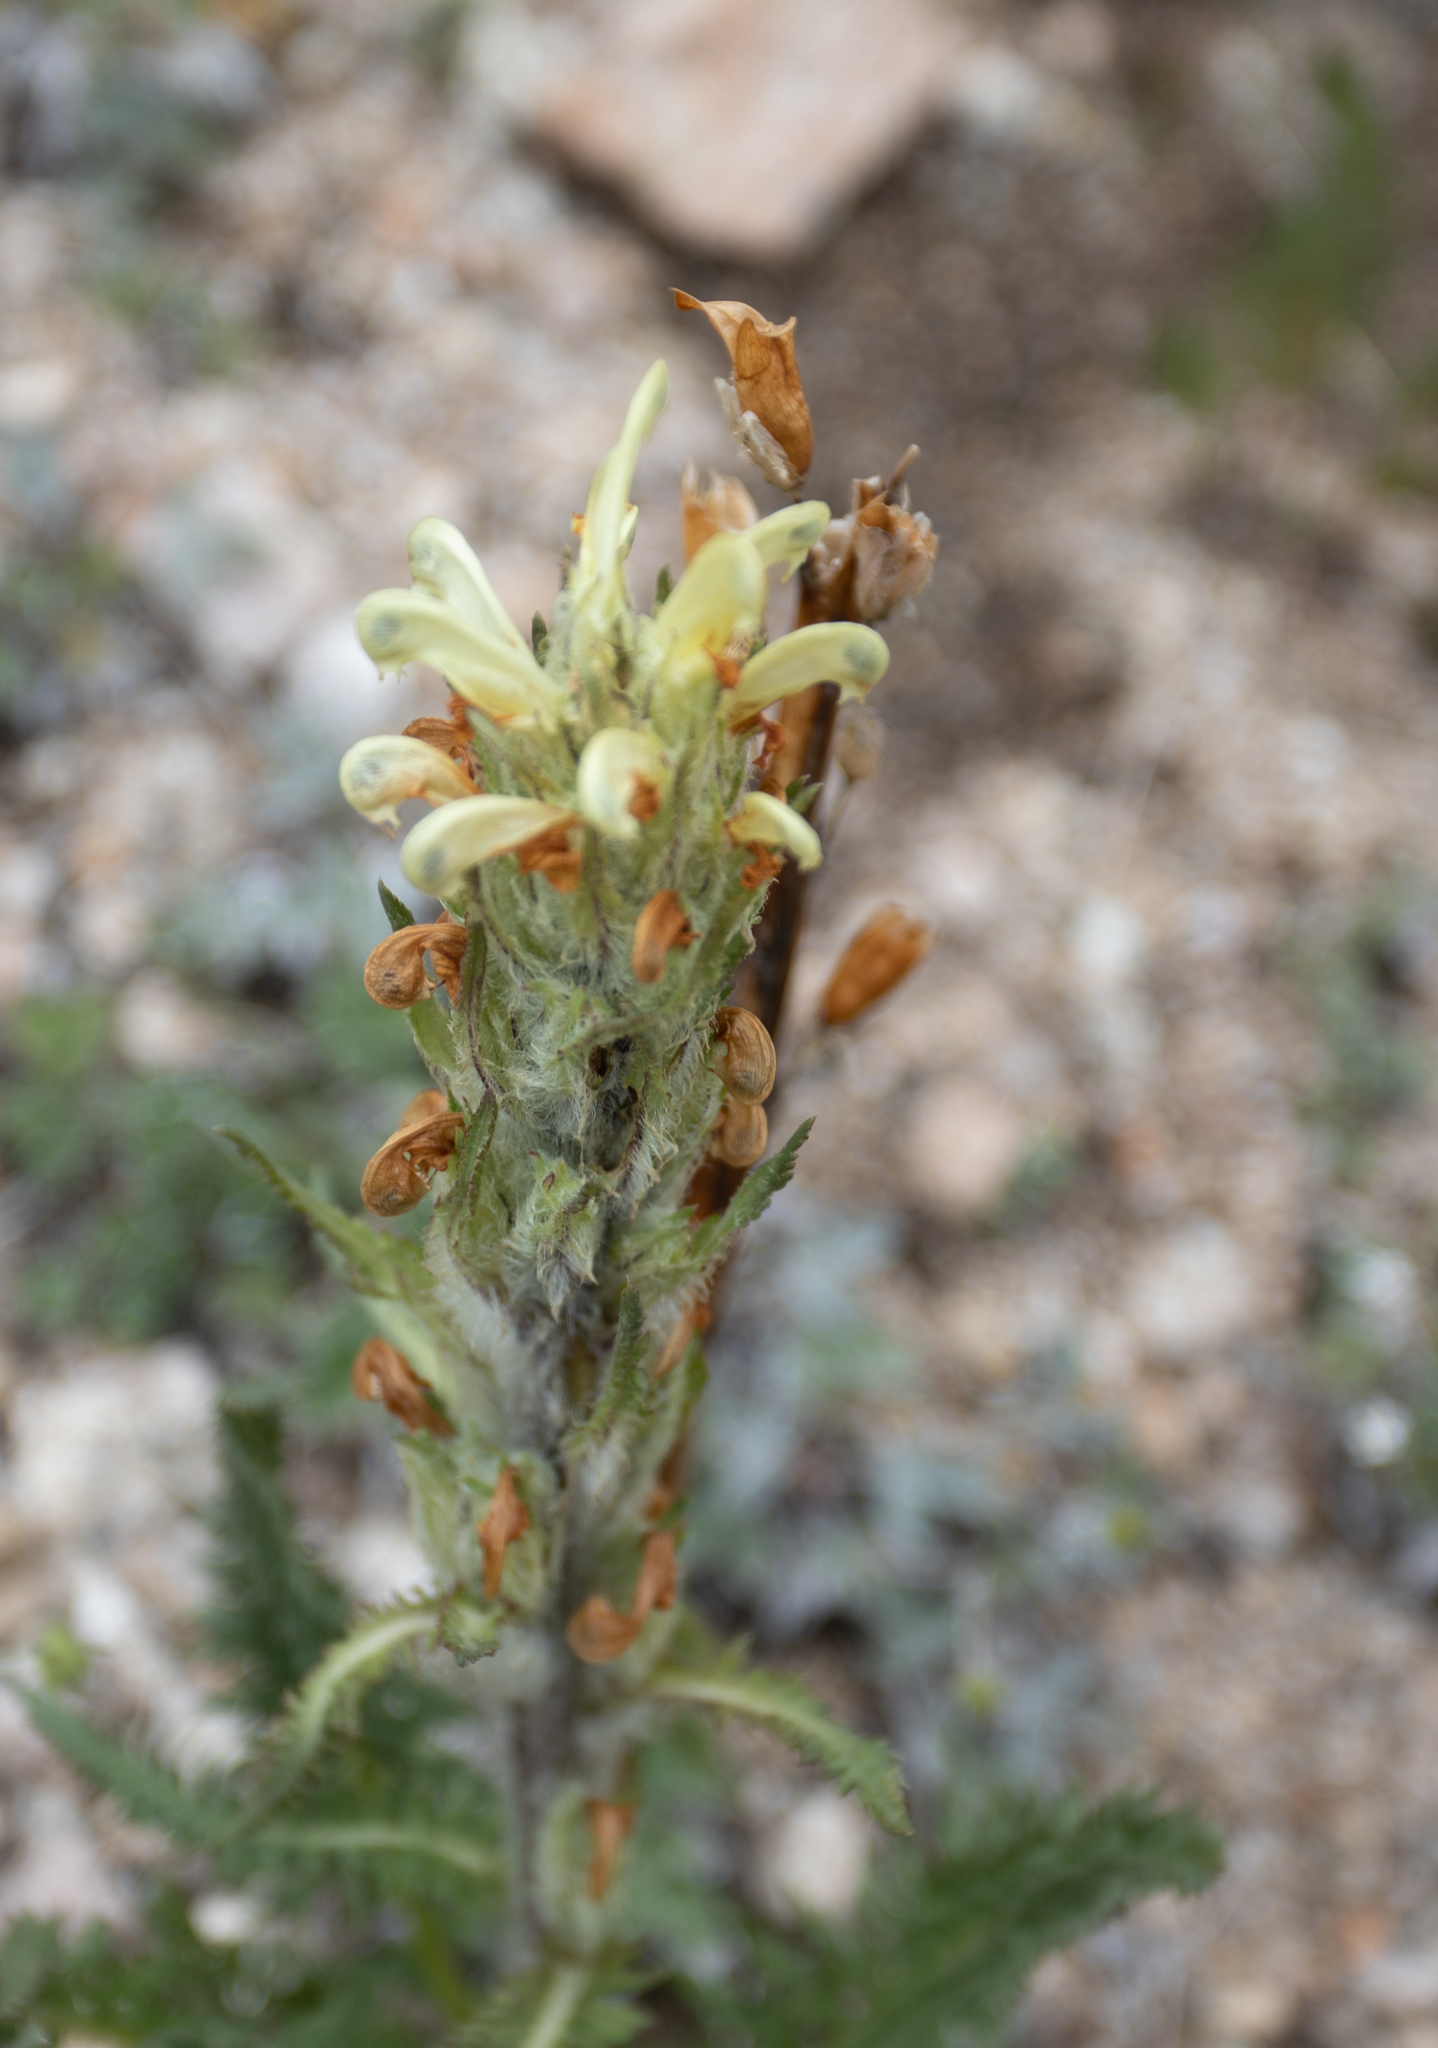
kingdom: Plantae
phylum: Tracheophyta
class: Magnoliopsida
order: Lamiales
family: Orobanchaceae
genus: Pedicularis
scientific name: Pedicularis lasiostachys
